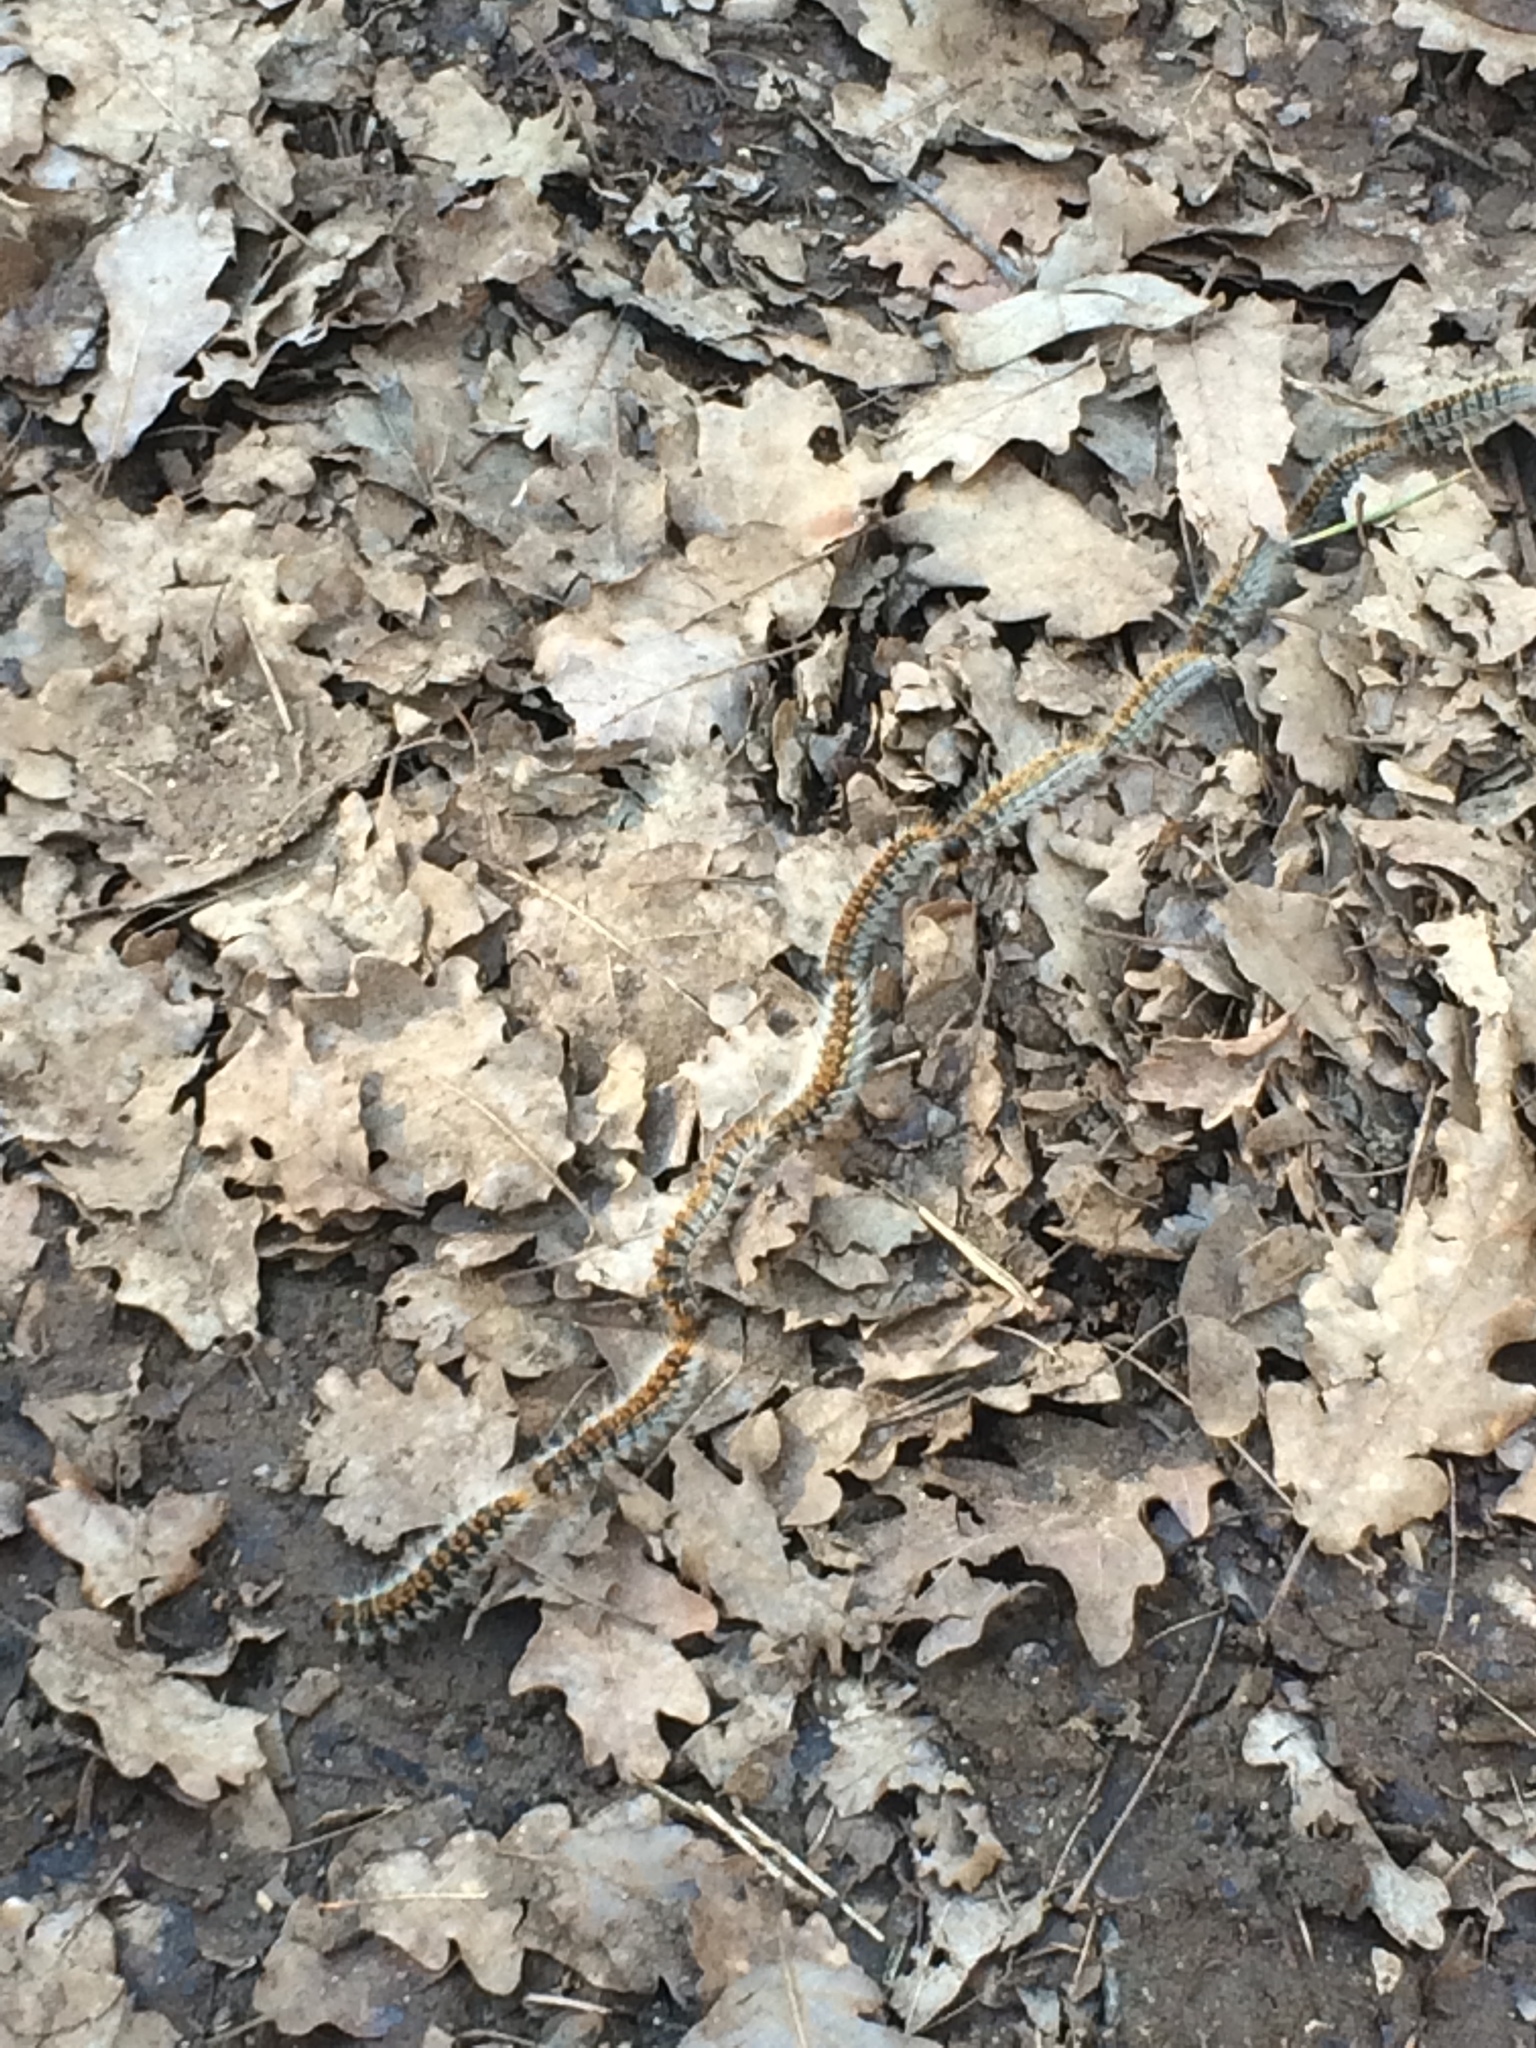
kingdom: Animalia
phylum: Arthropoda
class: Insecta
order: Lepidoptera
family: Notodontidae
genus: Thaumetopoea
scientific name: Thaumetopoea pityocampa
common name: Pine processionary
